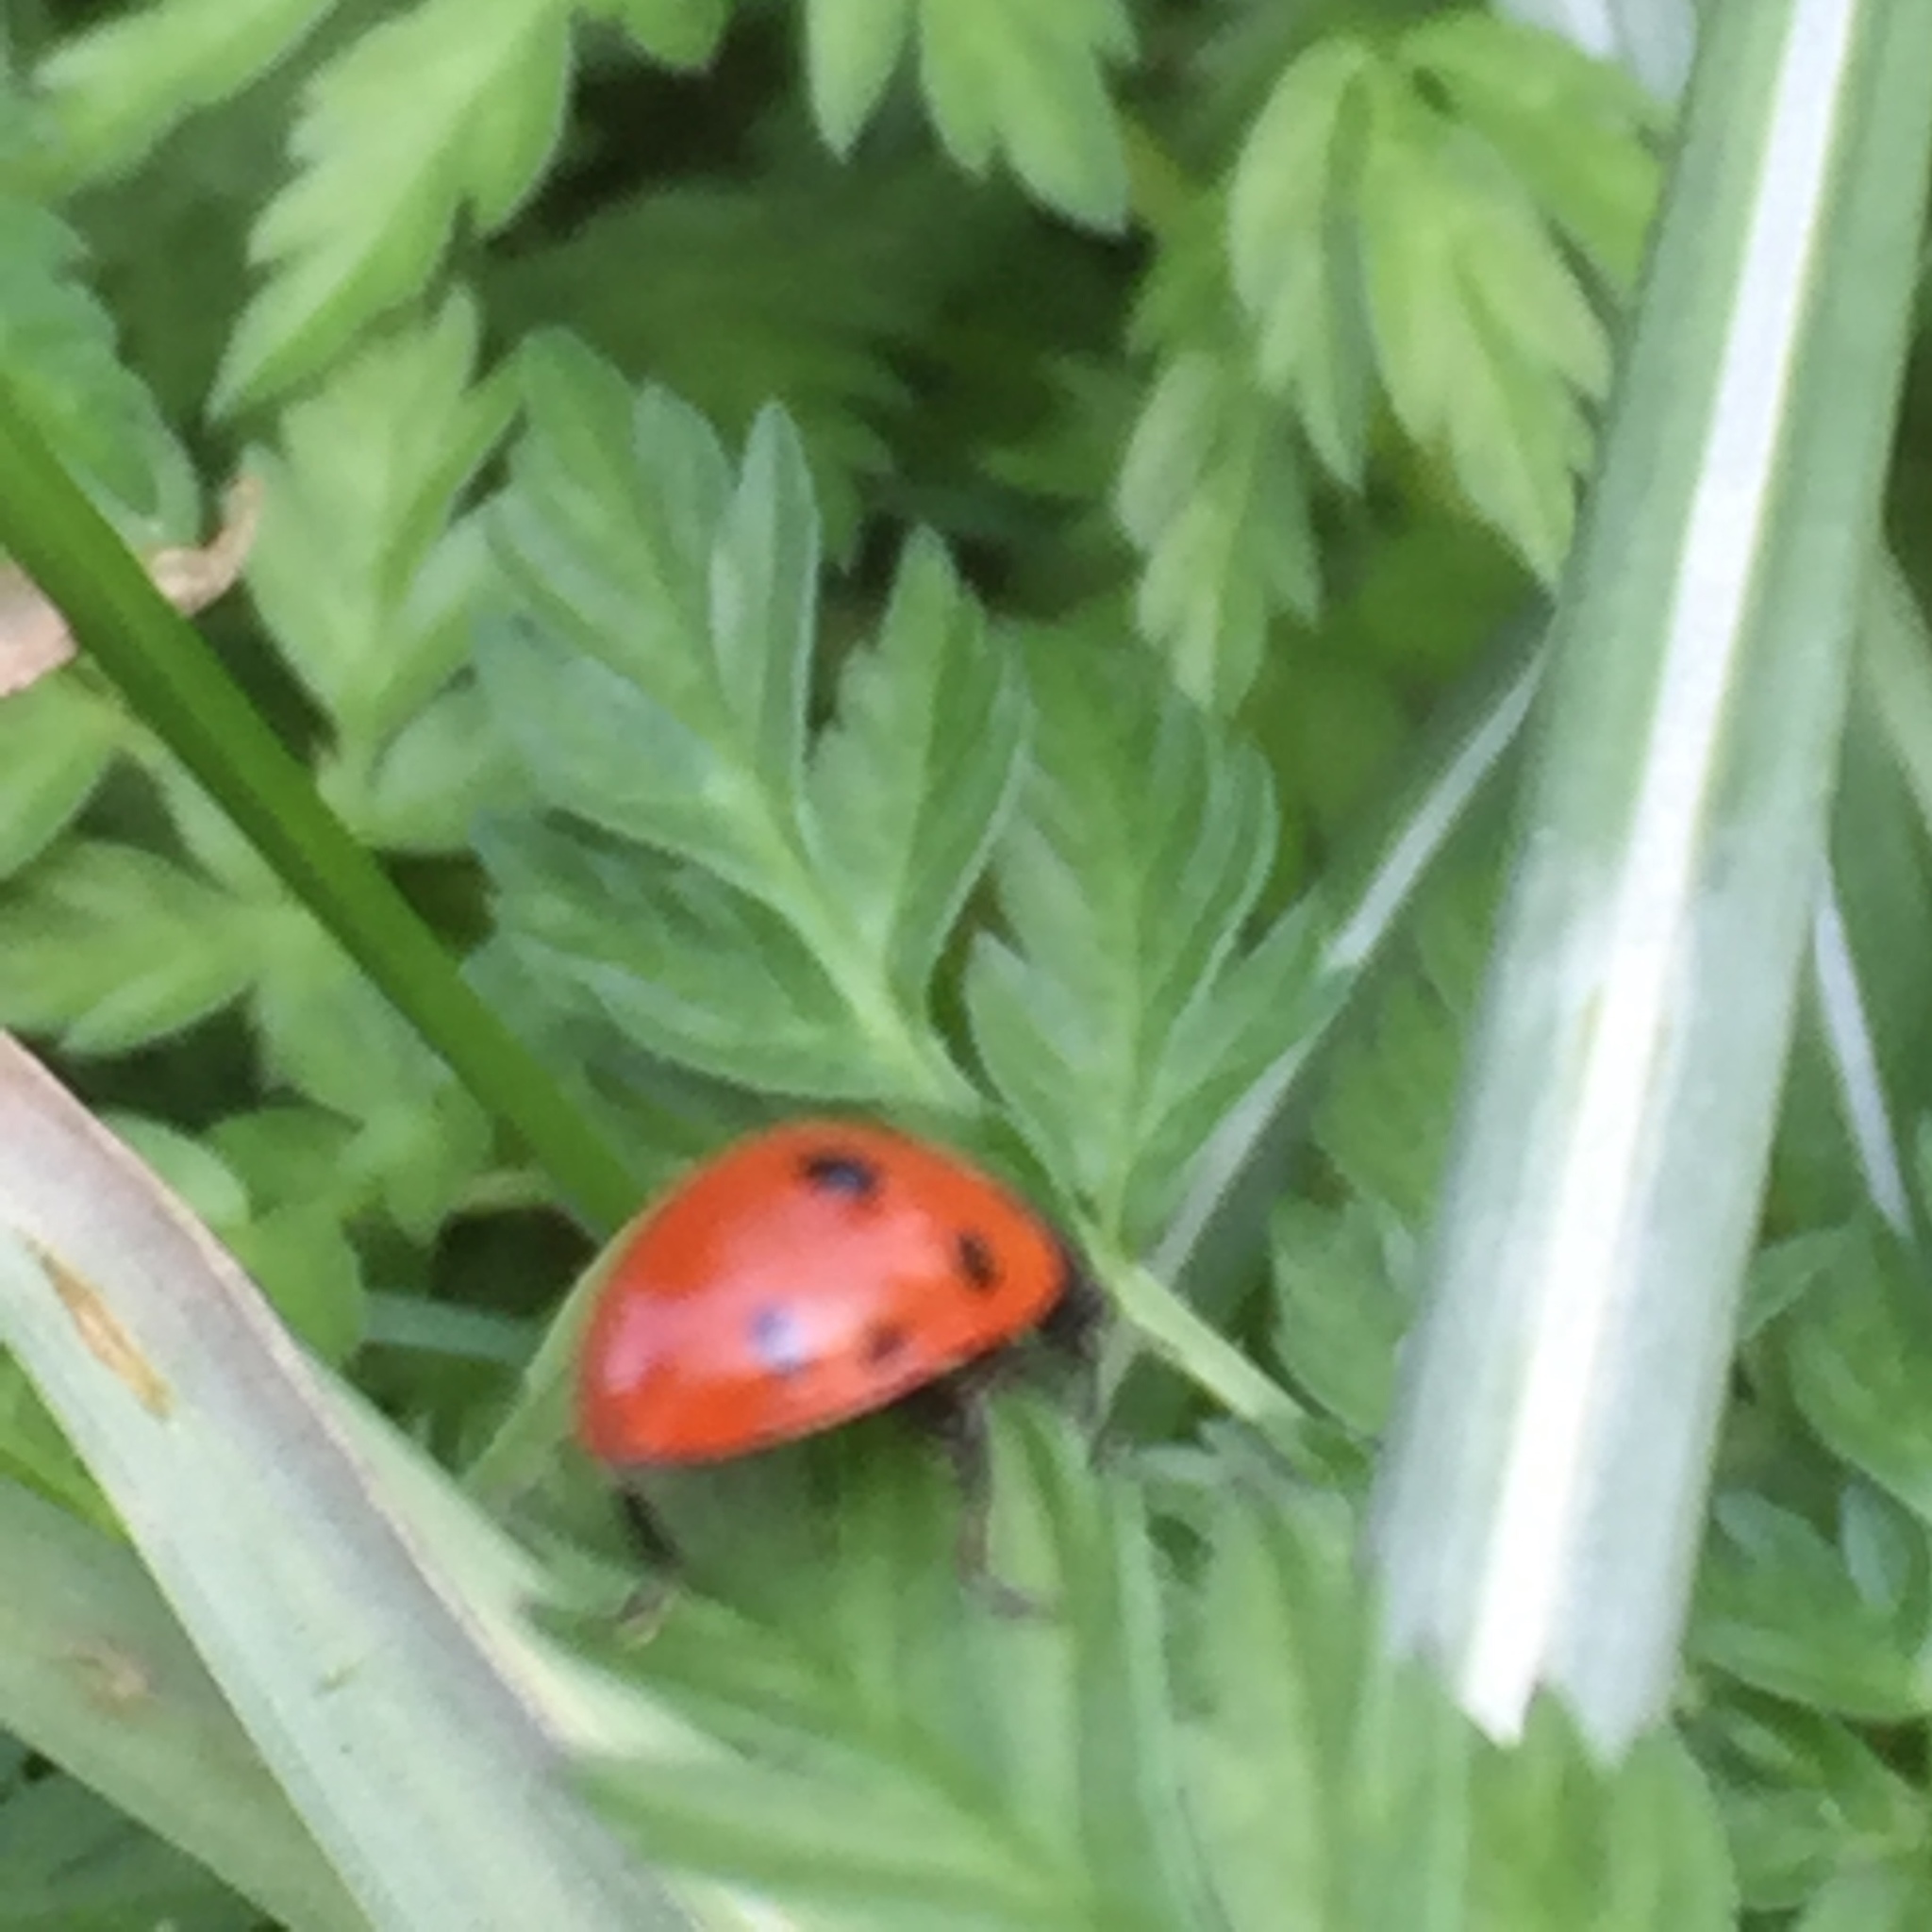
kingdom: Animalia
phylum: Arthropoda
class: Insecta
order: Coleoptera
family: Coccinellidae
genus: Coccinella
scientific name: Coccinella septempunctata
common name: Sevenspotted lady beetle
